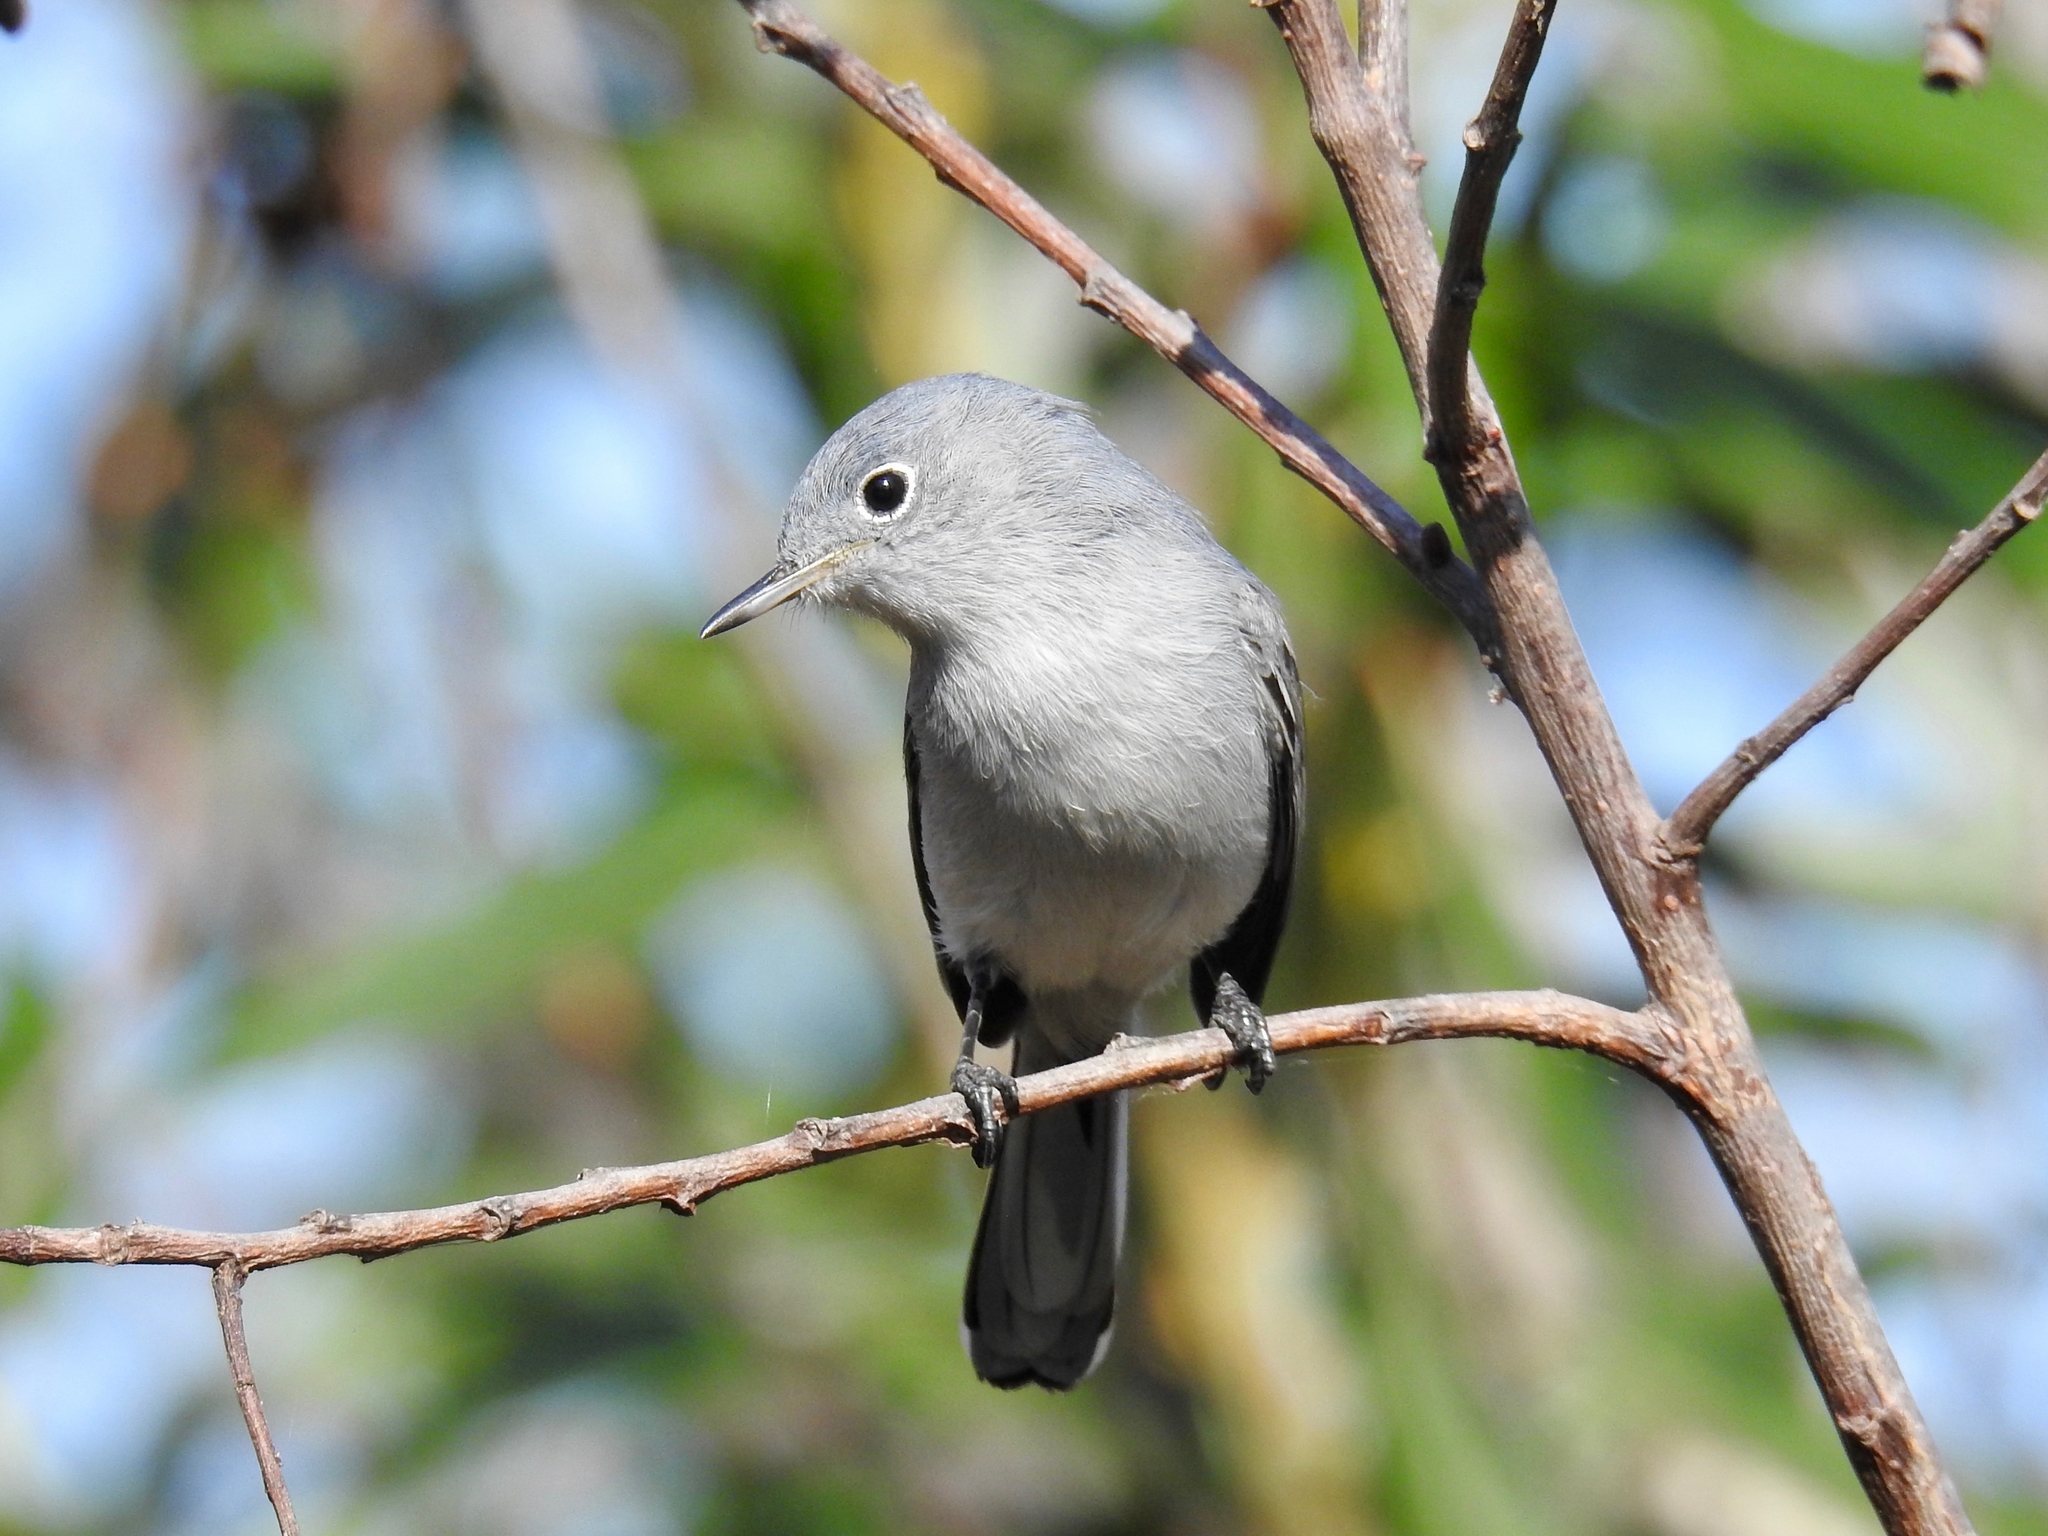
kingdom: Animalia
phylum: Chordata
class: Aves
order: Passeriformes
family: Polioptilidae
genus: Polioptila
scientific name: Polioptila caerulea
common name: Blue-gray gnatcatcher
